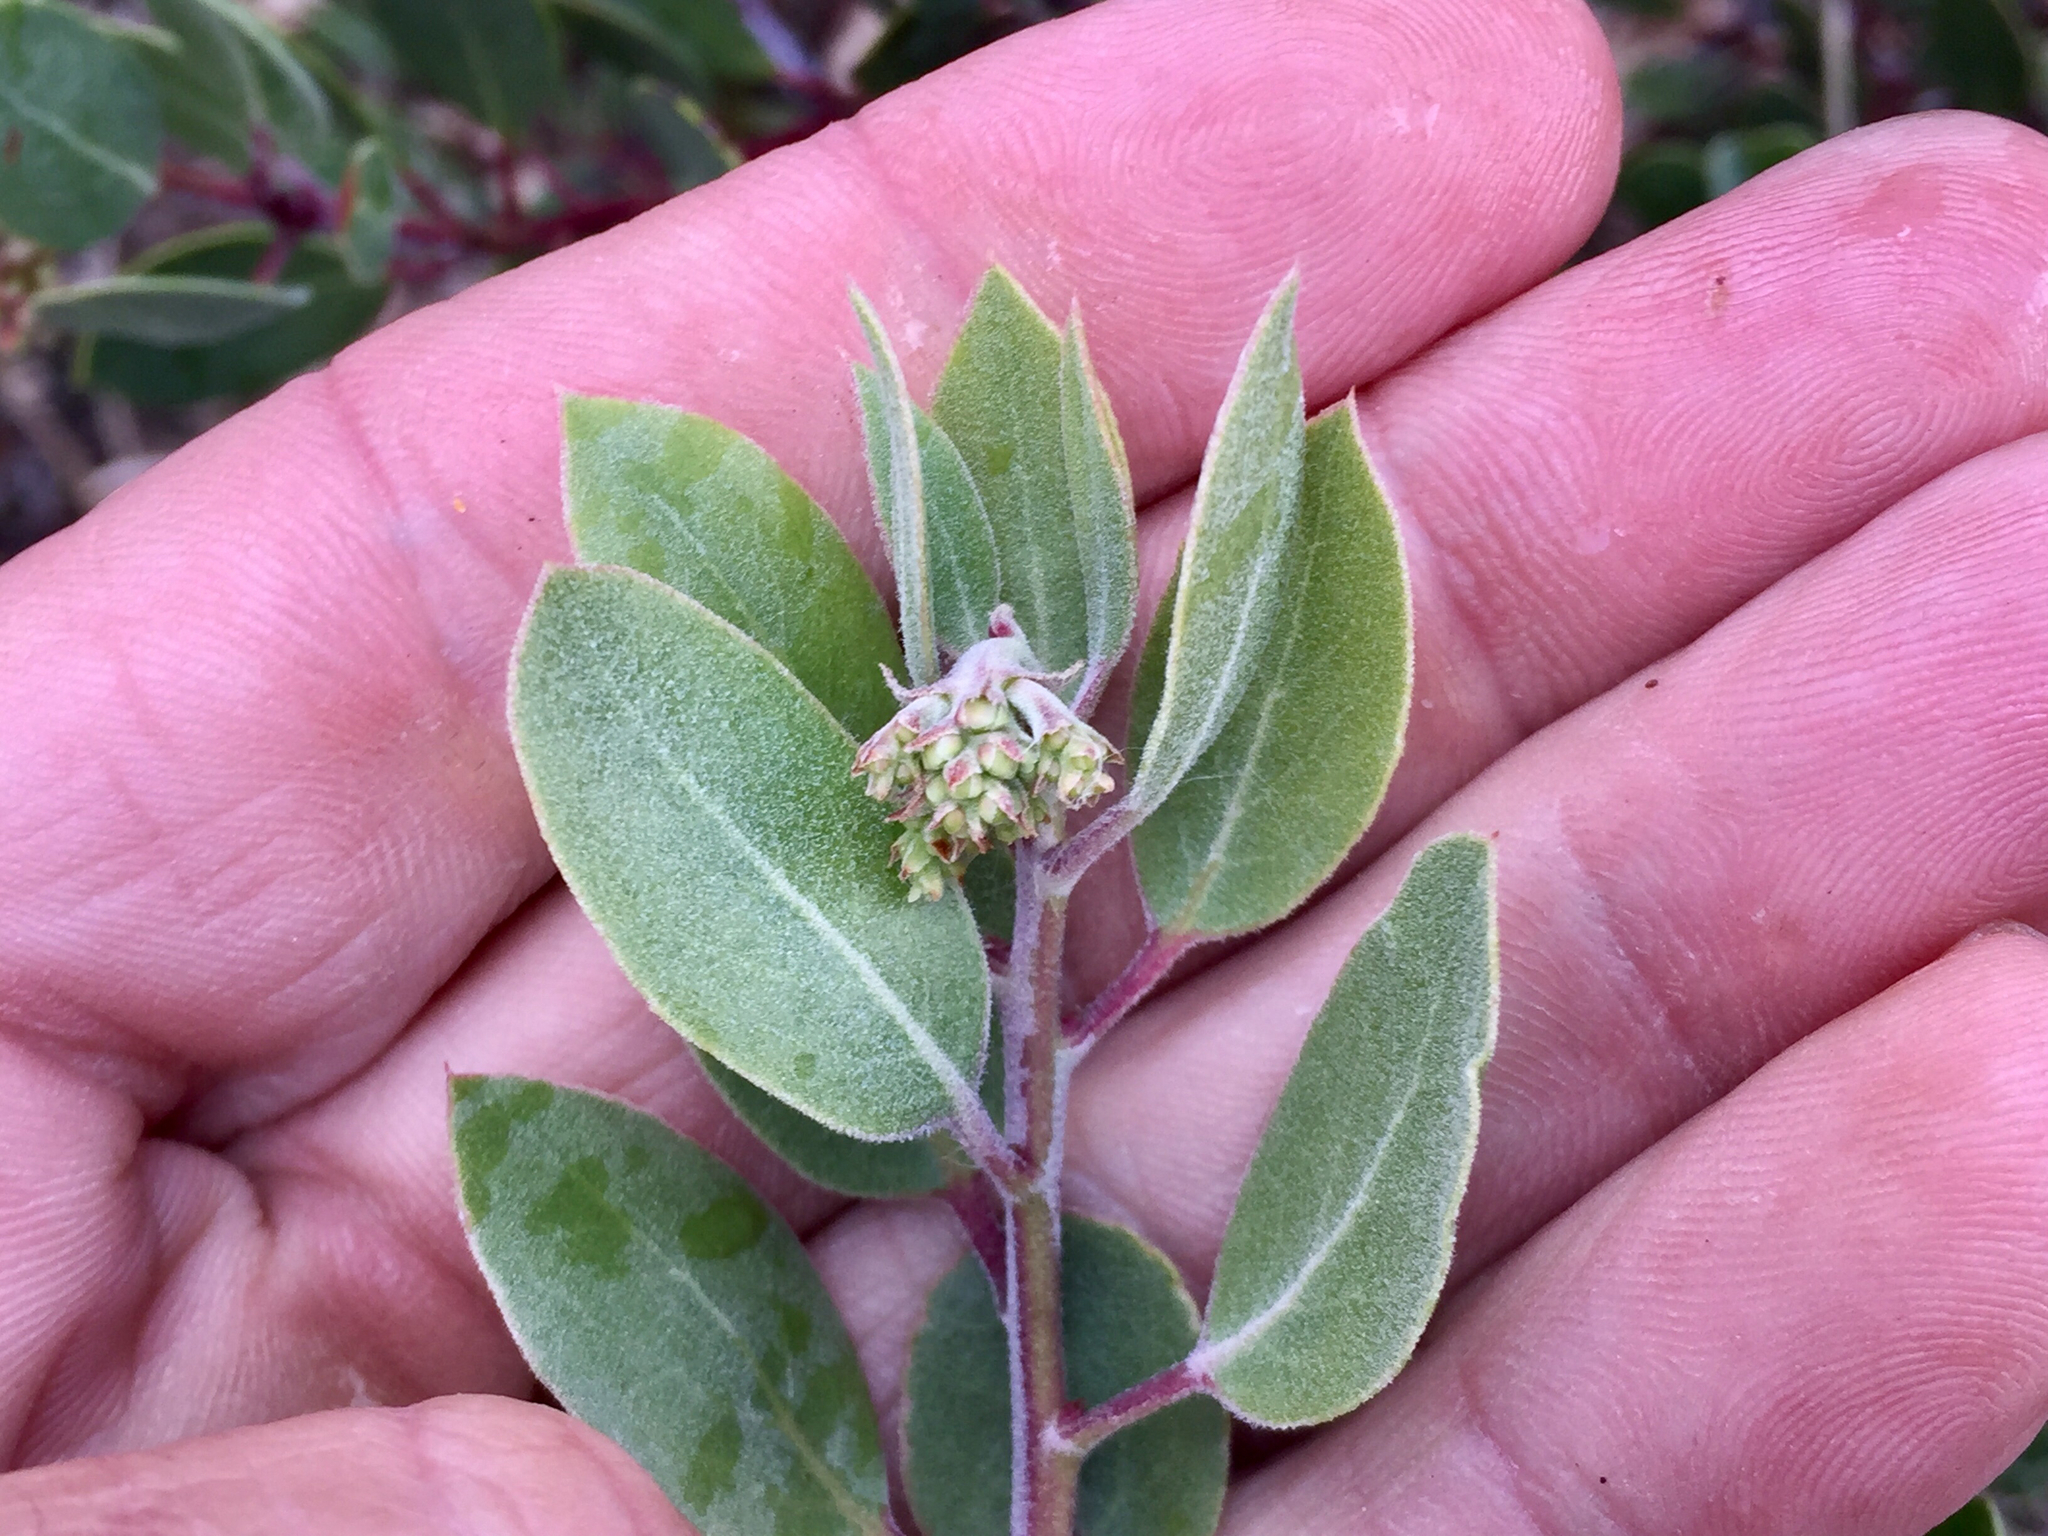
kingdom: Plantae
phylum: Tracheophyta
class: Magnoliopsida
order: Ericales
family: Ericaceae
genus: Arctostaphylos
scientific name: Arctostaphylos pungens
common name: Mexican manzanita
